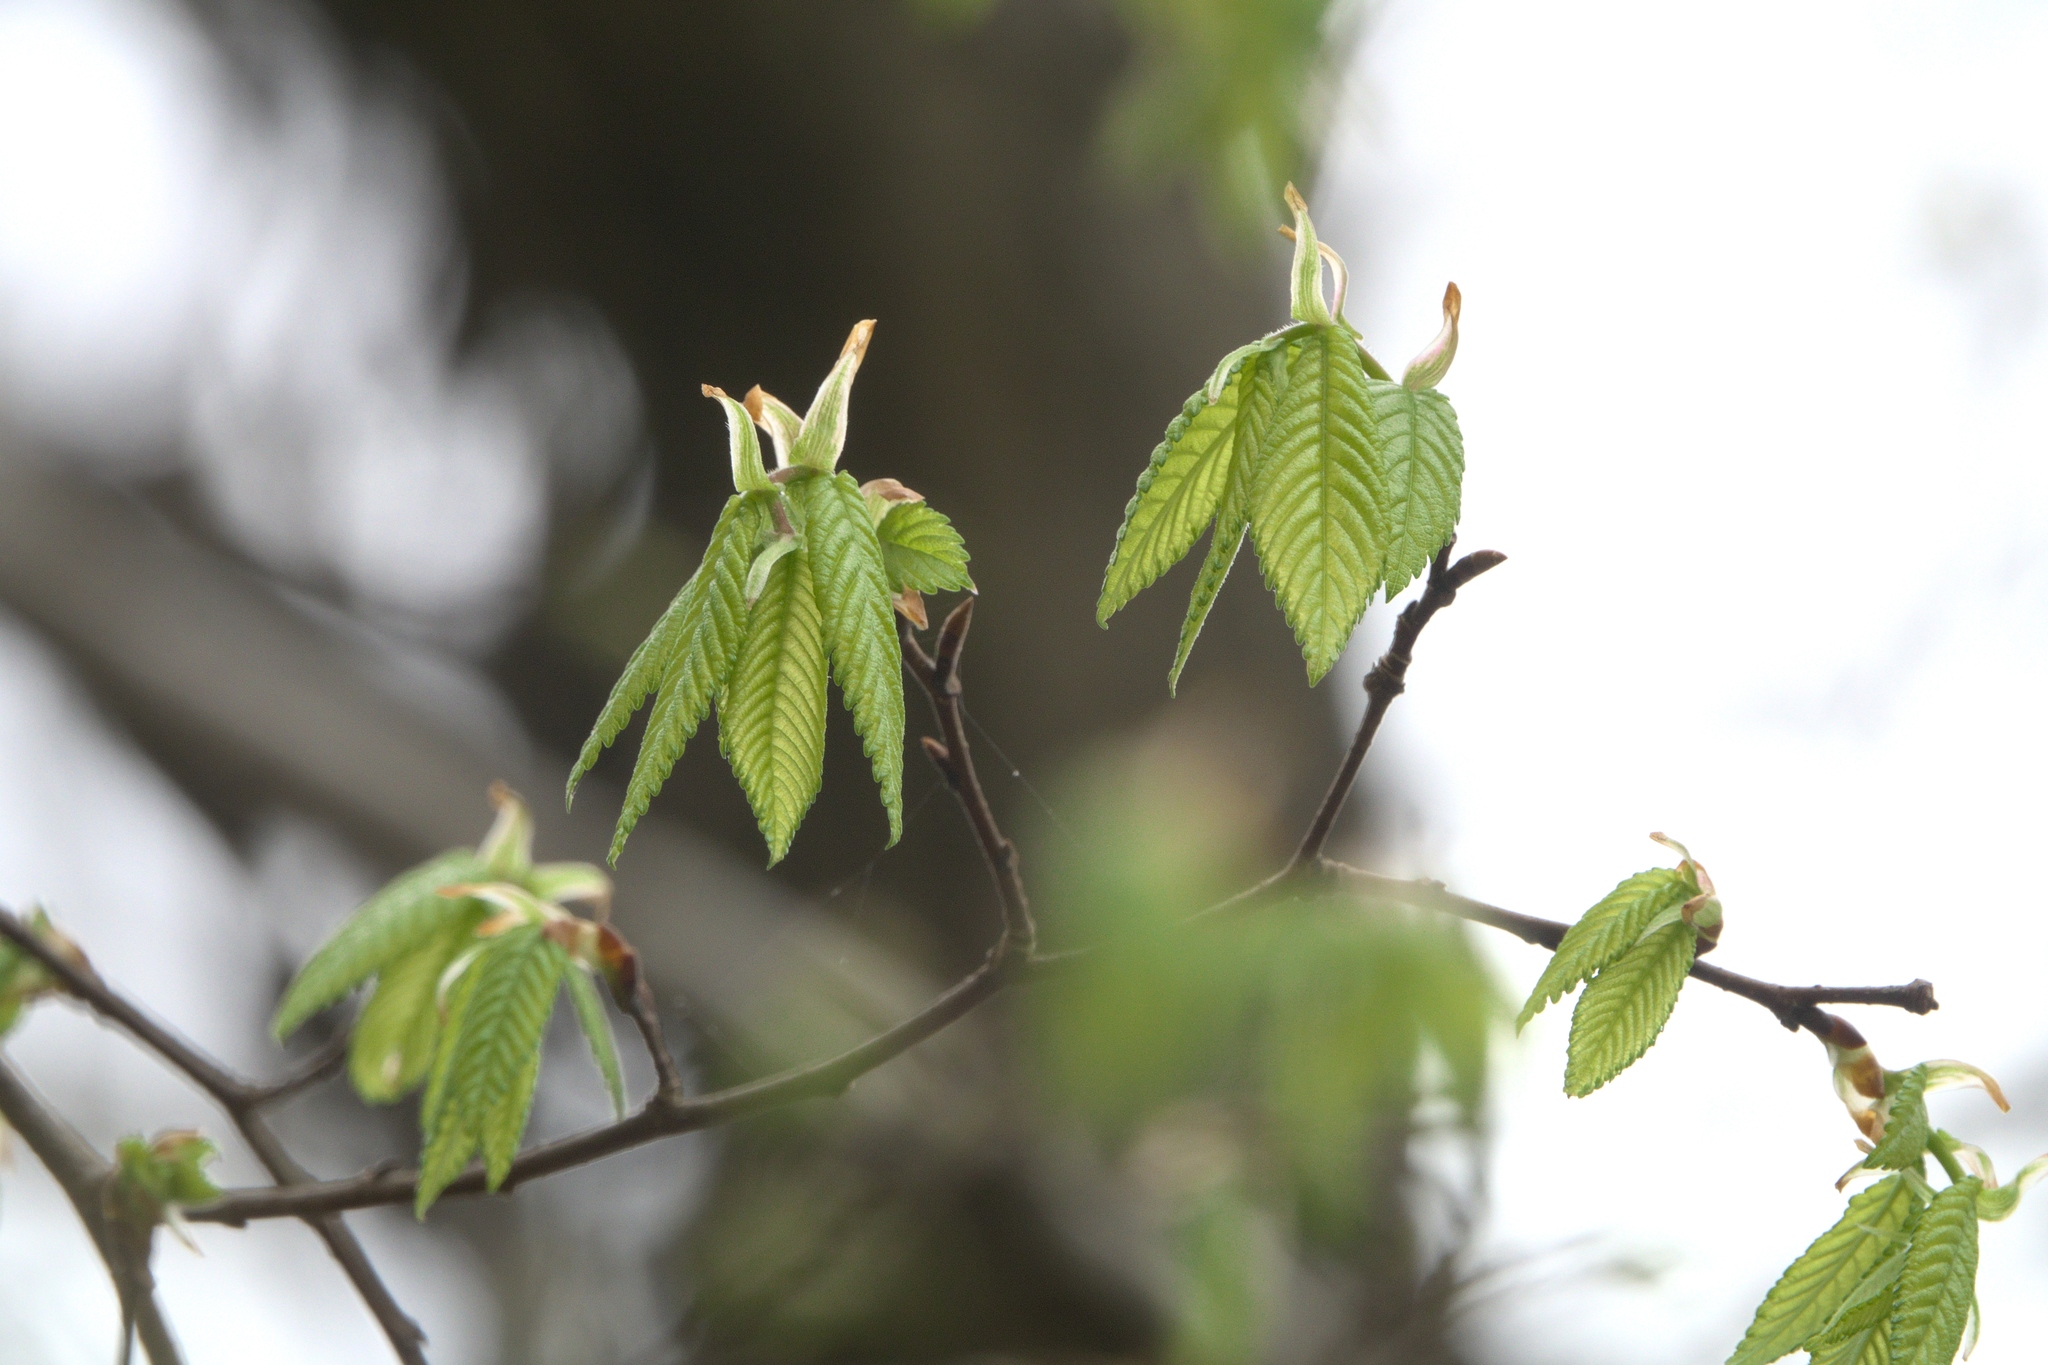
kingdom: Plantae
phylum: Tracheophyta
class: Magnoliopsida
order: Rosales
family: Ulmaceae
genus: Ulmus
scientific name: Ulmus alata
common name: Winged elm
